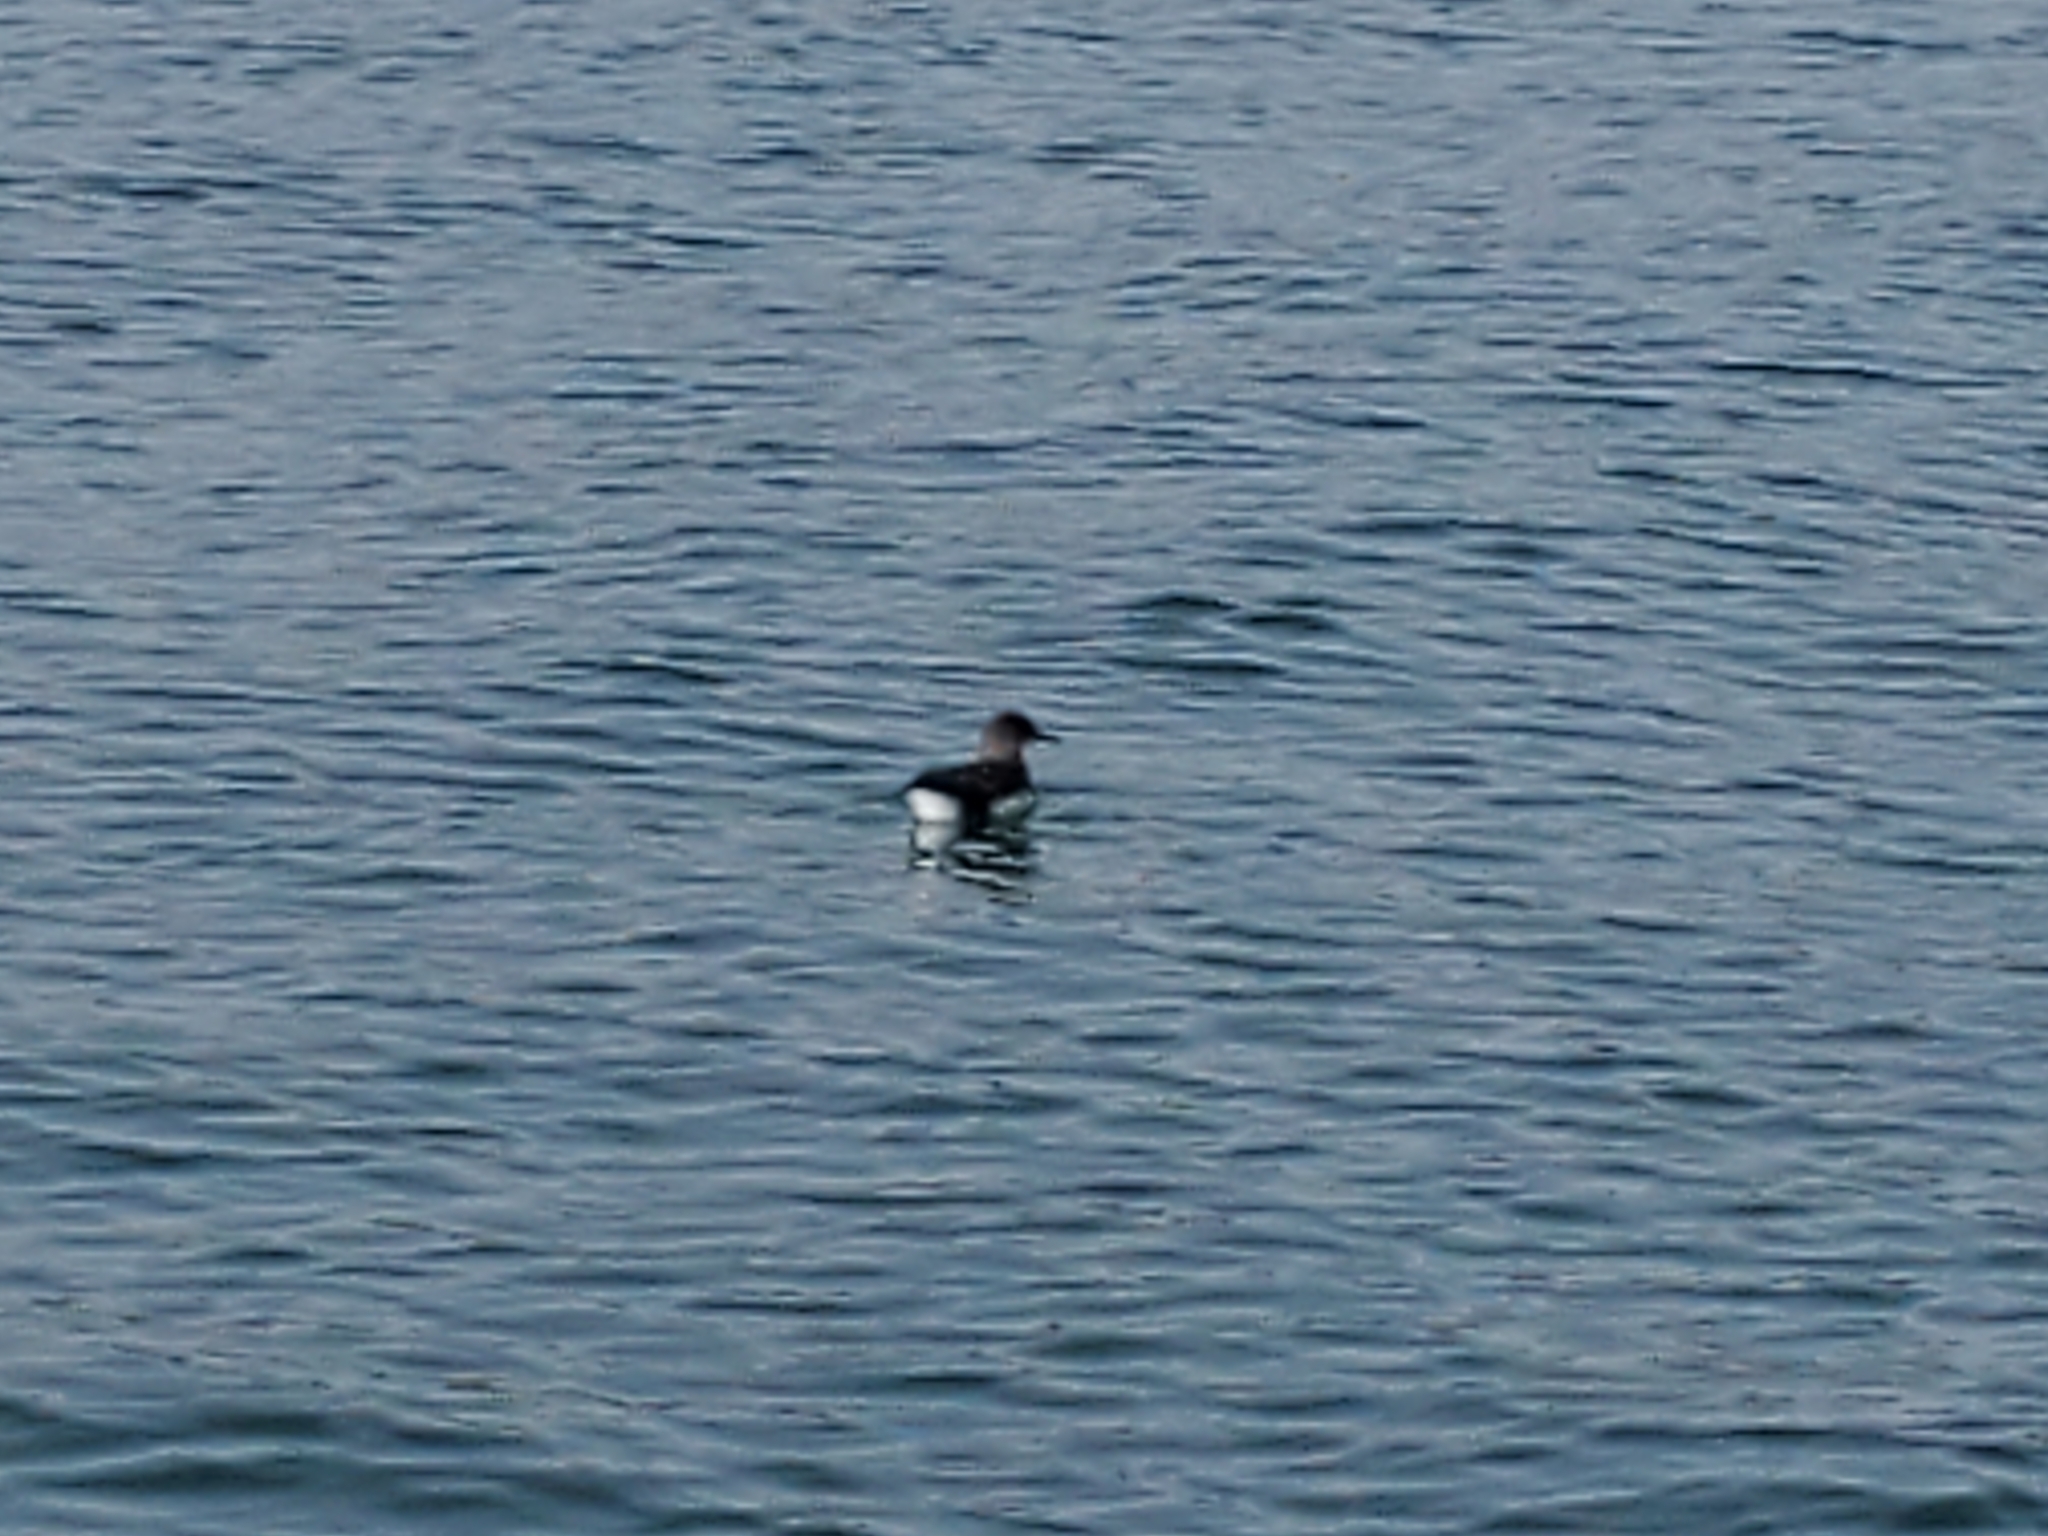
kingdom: Animalia
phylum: Chordata
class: Aves
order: Procellariiformes
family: Procellariidae
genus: Puffinus
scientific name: Puffinus gavia
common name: Fluttering shearwater
